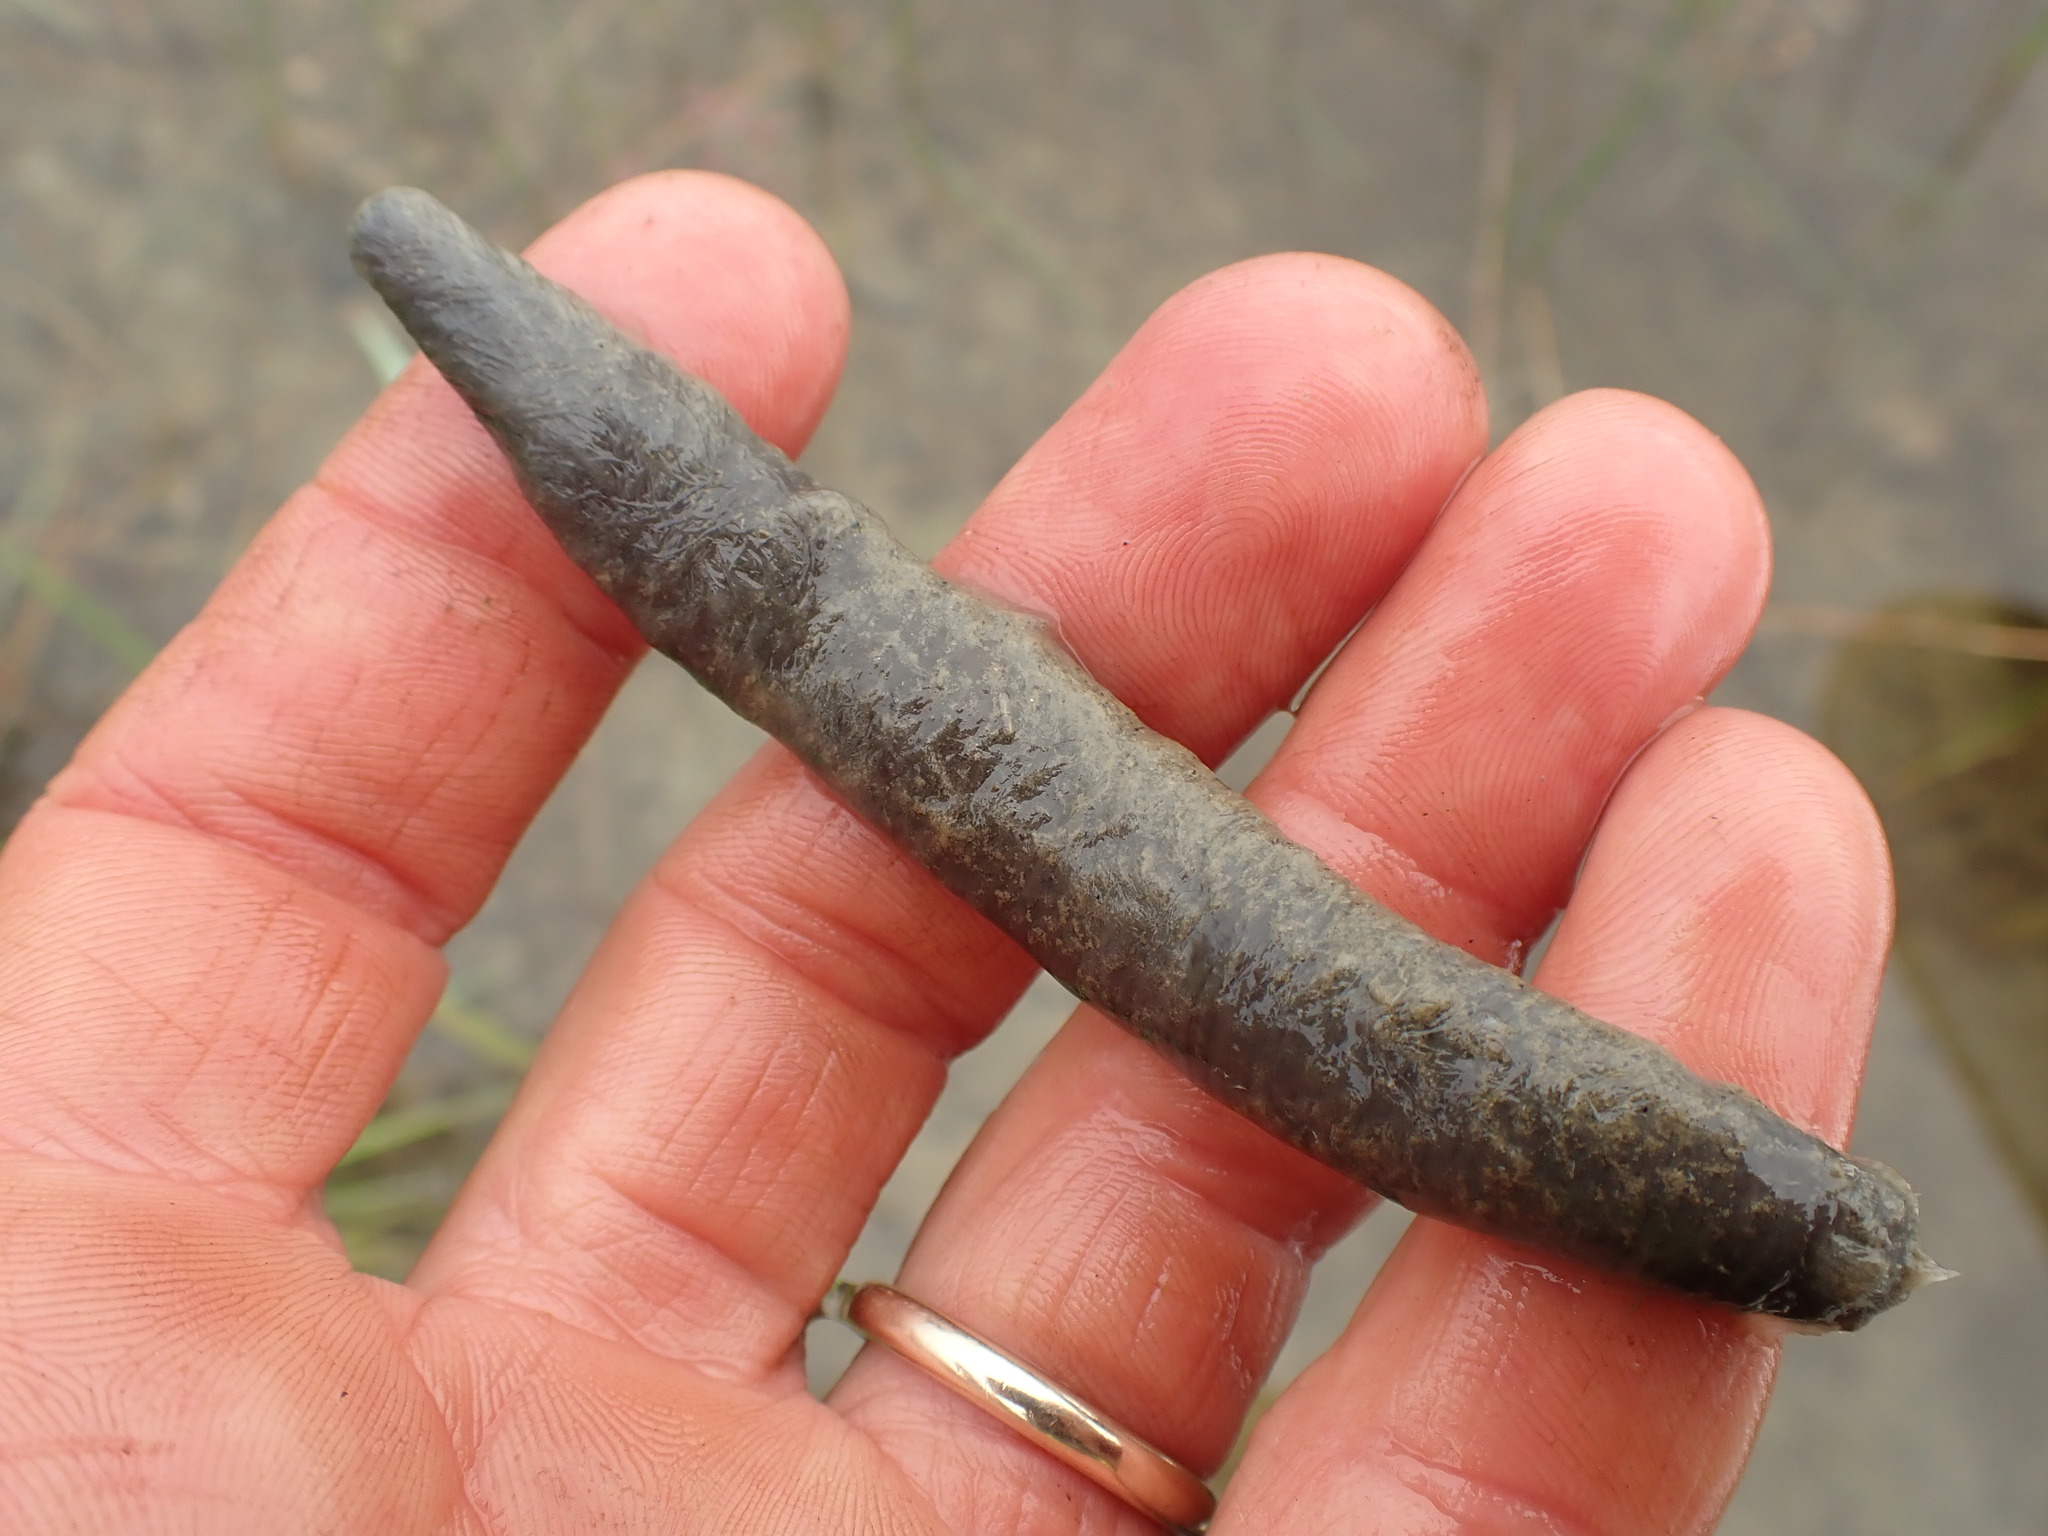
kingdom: Animalia
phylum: Annelida
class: Clitellata
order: Arhynchobdellida
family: Haemopidae
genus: Haemopis
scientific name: Haemopis lateromaculata
